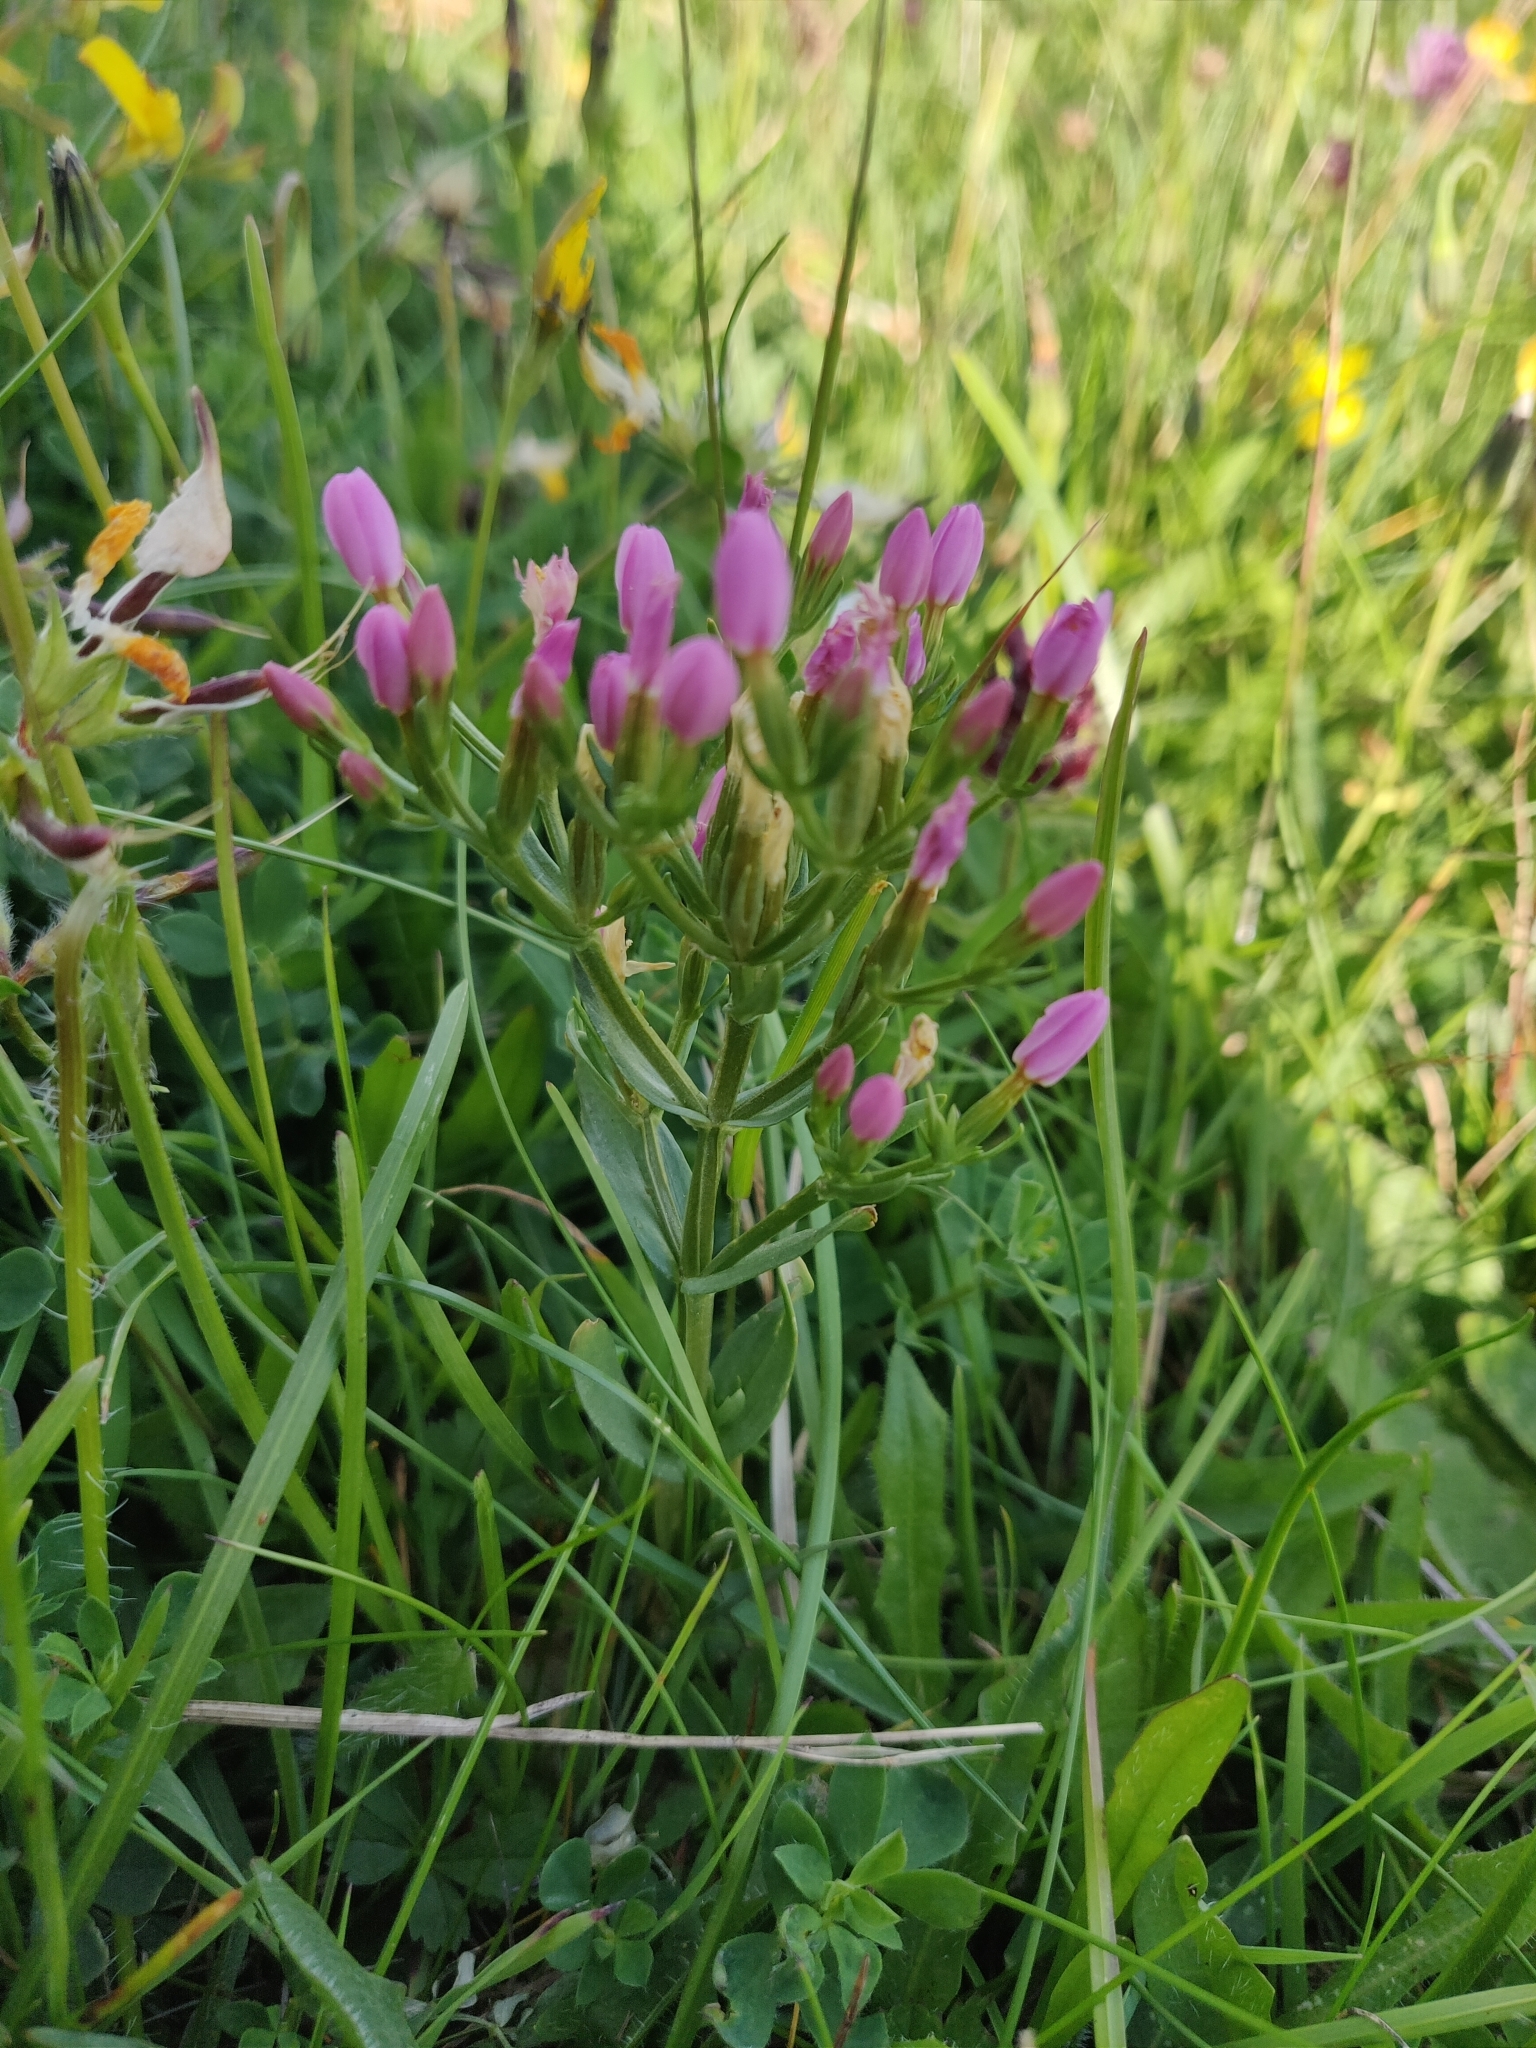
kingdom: Plantae
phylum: Tracheophyta
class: Magnoliopsida
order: Gentianales
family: Gentianaceae
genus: Centaurium
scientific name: Centaurium erythraea
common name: Common centaury
